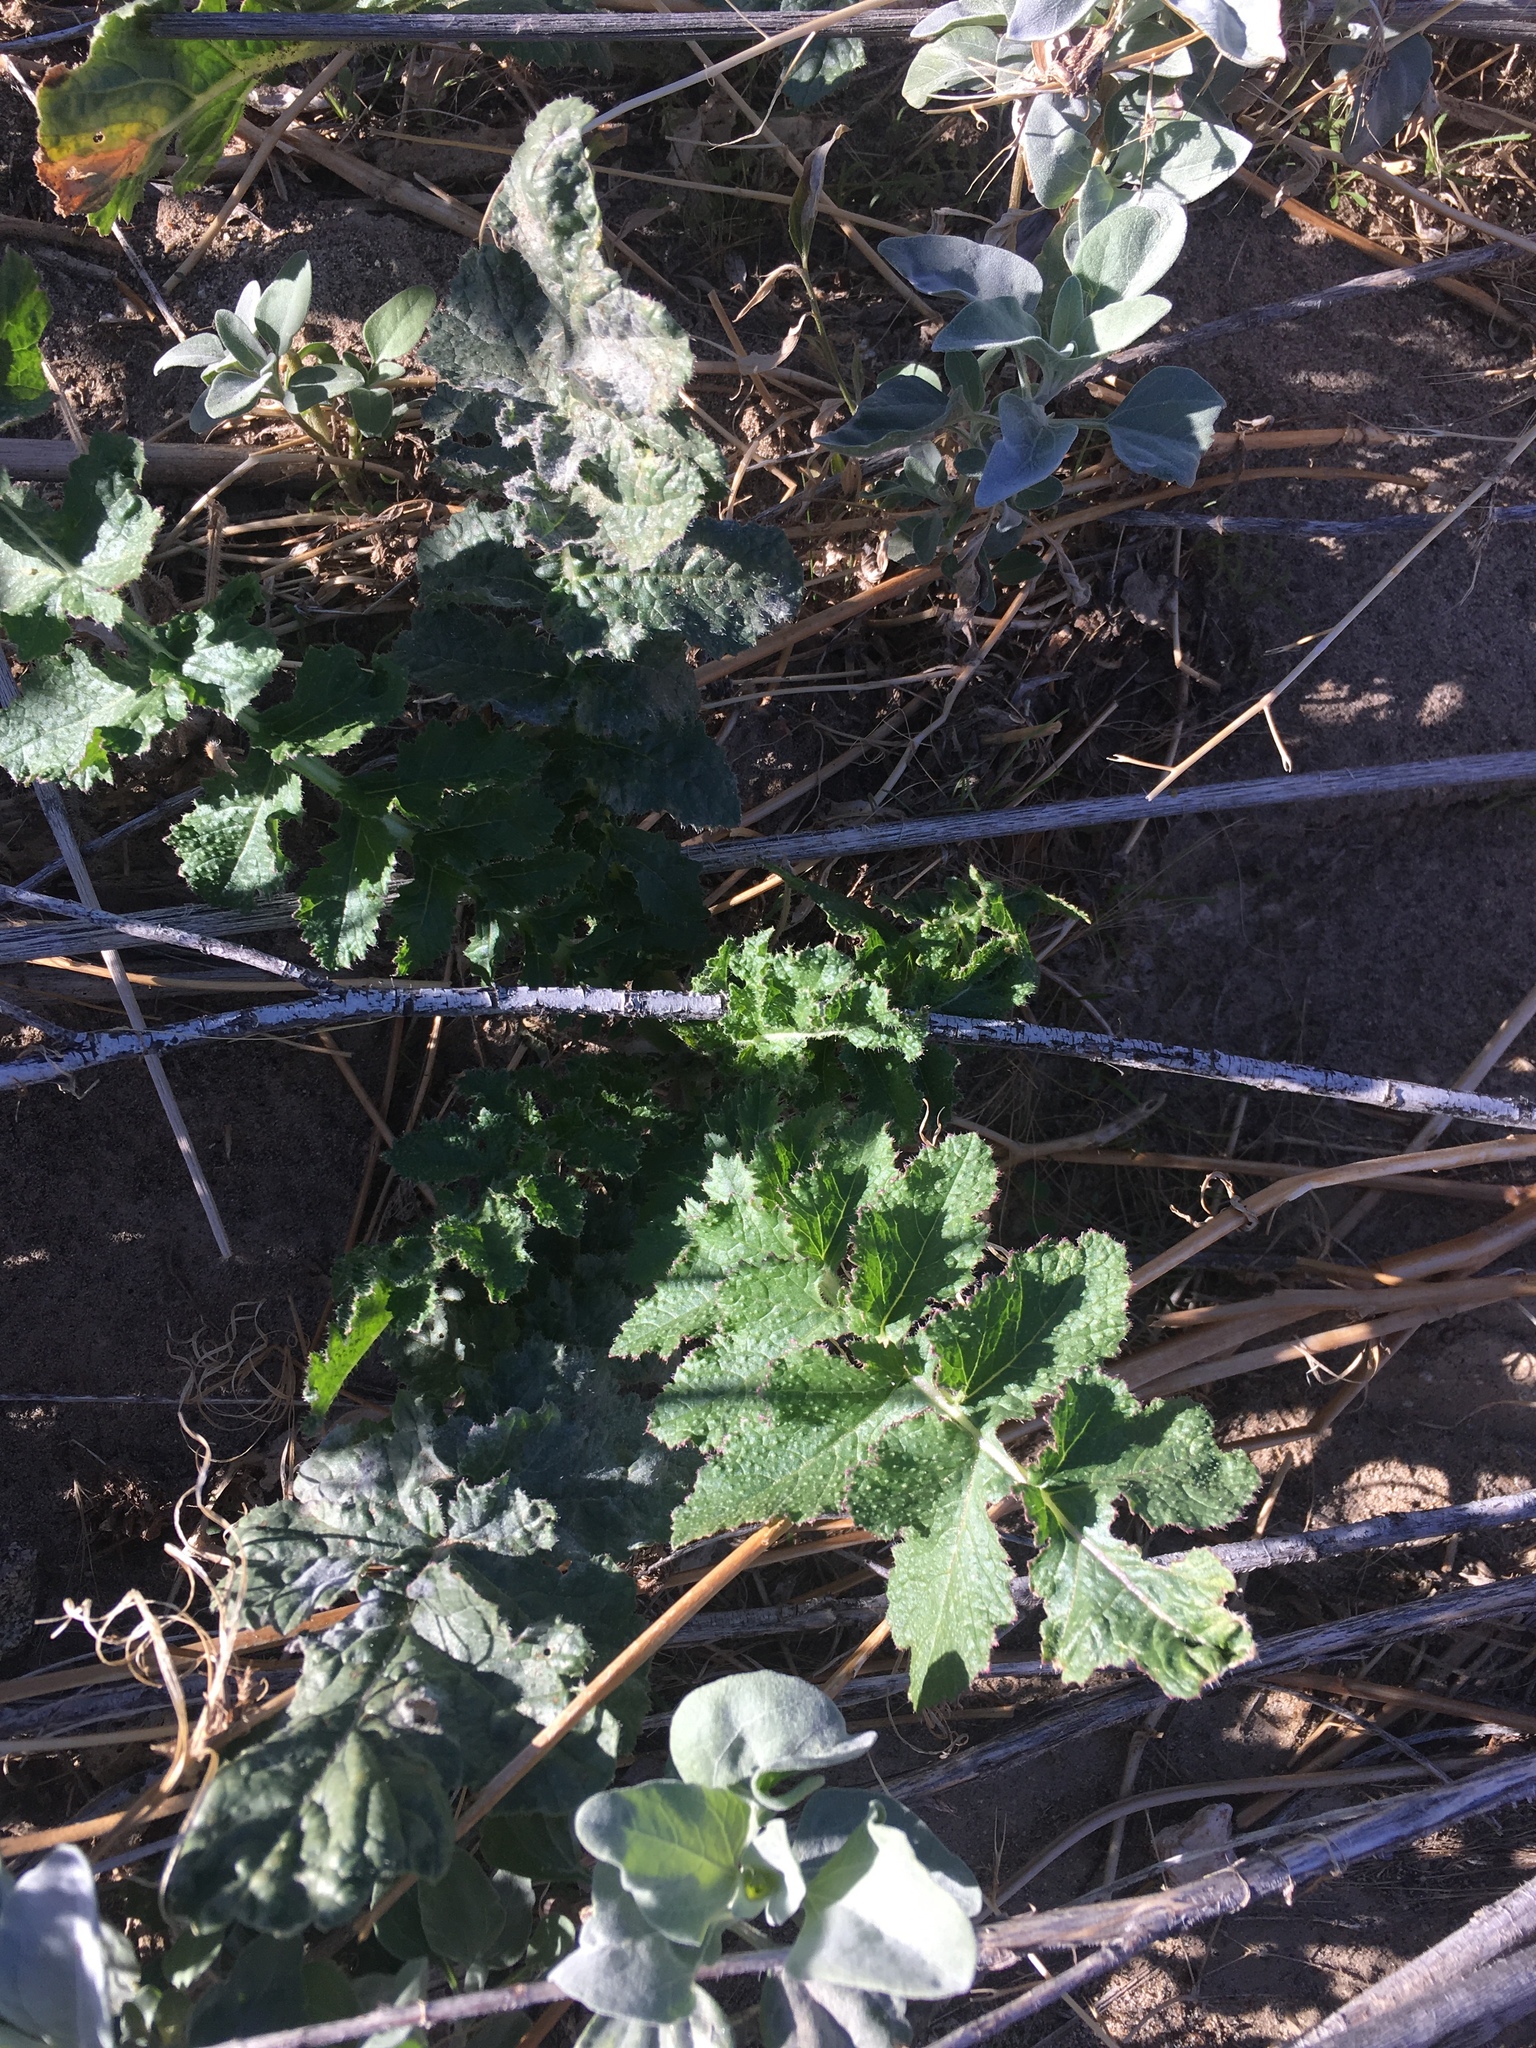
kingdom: Plantae
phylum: Tracheophyta
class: Magnoliopsida
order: Brassicales
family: Brassicaceae
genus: Brassica
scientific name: Brassica tournefortii
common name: Pale cabbage
